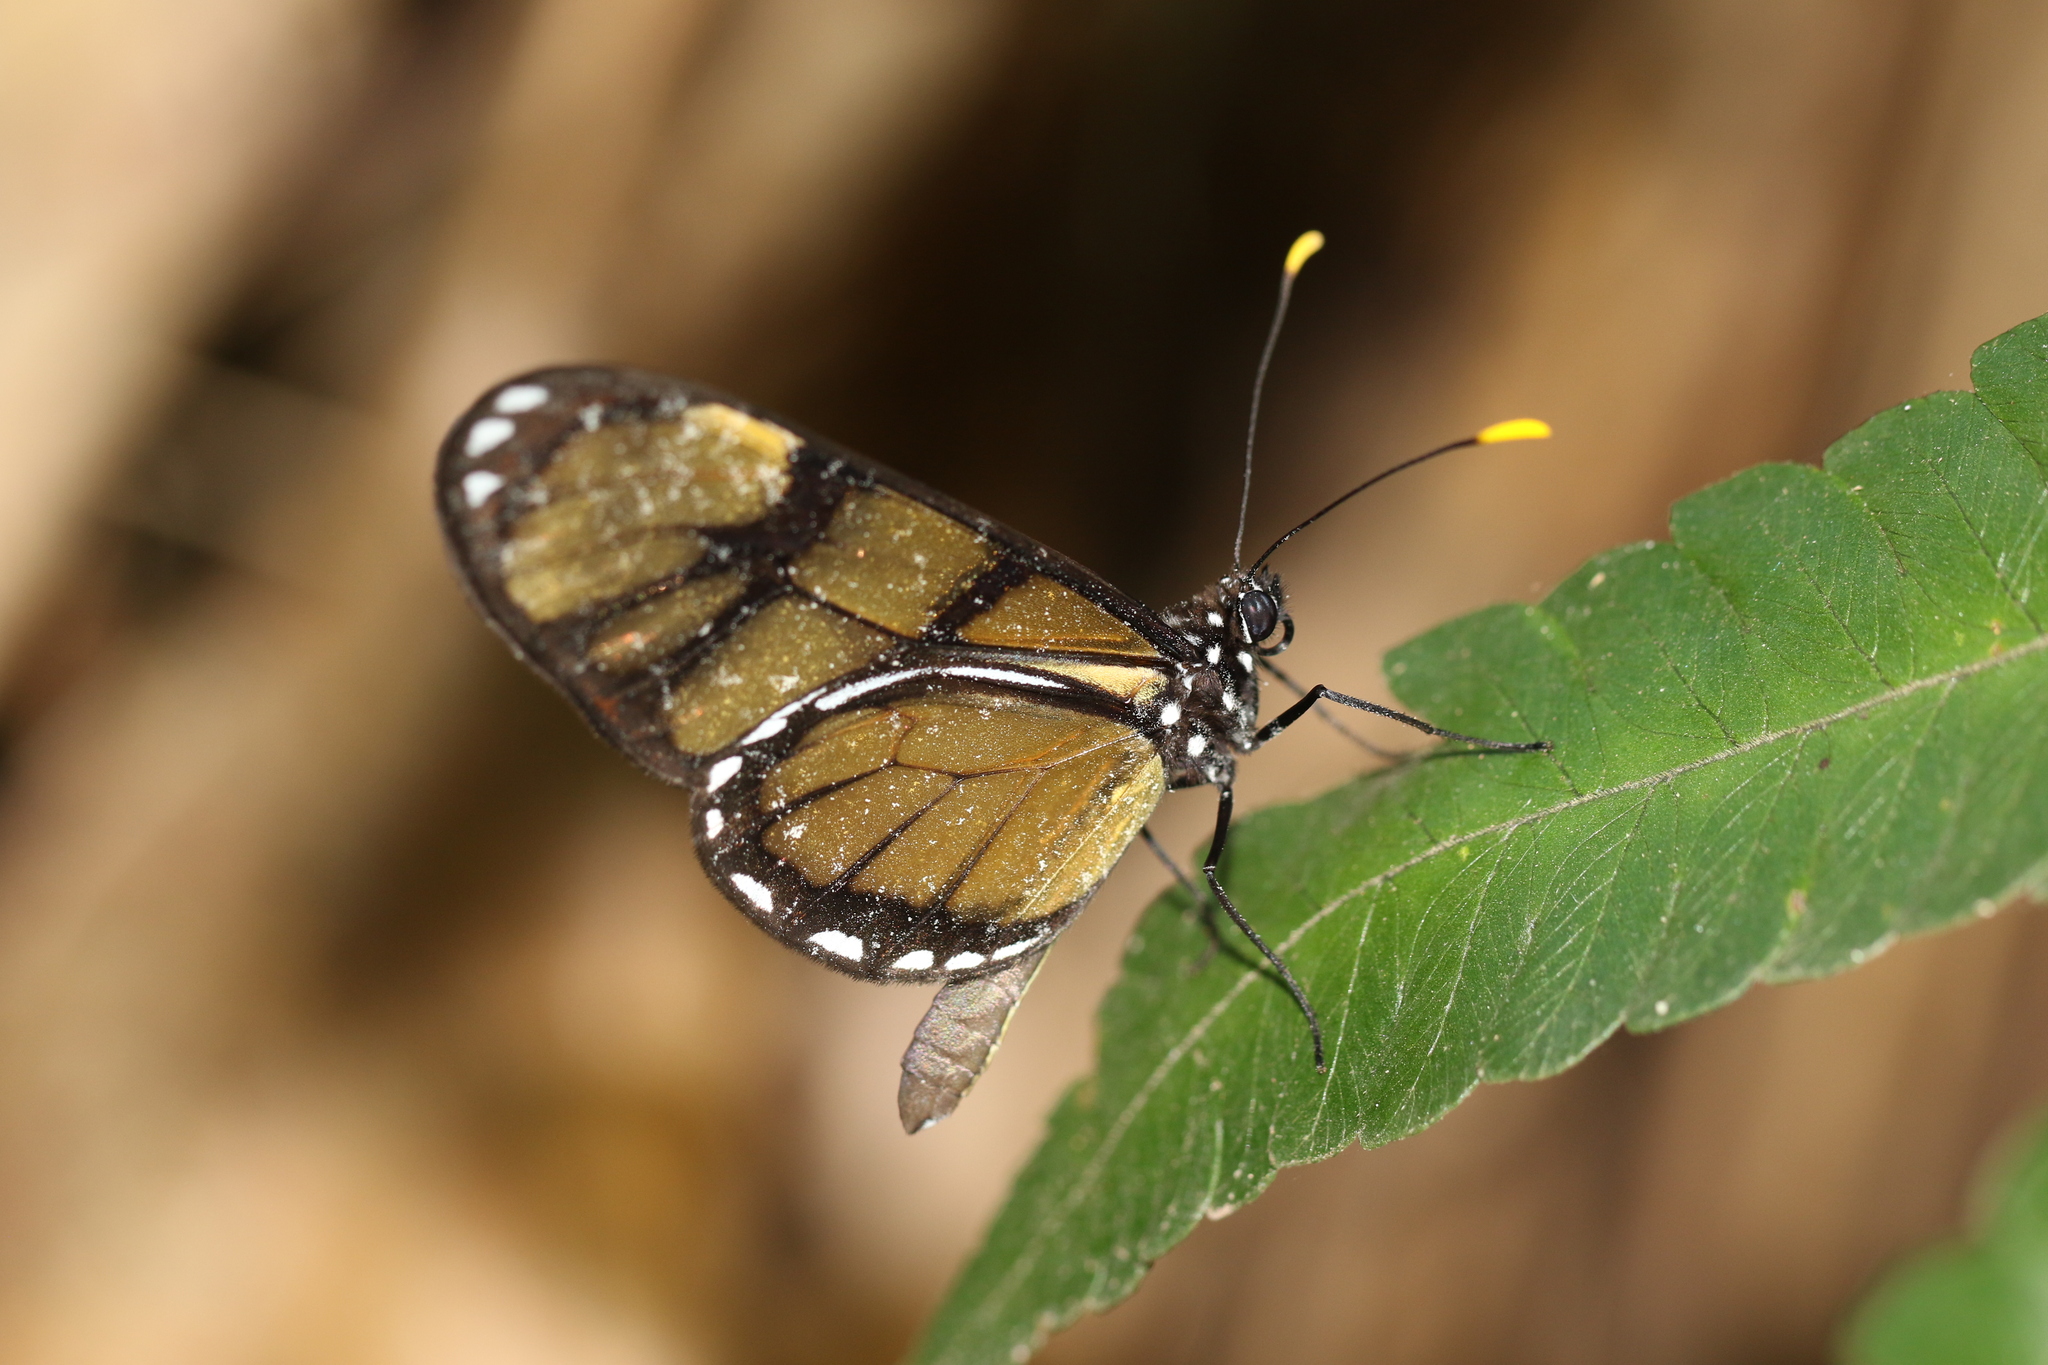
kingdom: Animalia
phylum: Arthropoda
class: Insecta
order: Lepidoptera
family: Nymphalidae
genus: Dircenna
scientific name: Dircenna dero
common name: Dero clearwing
